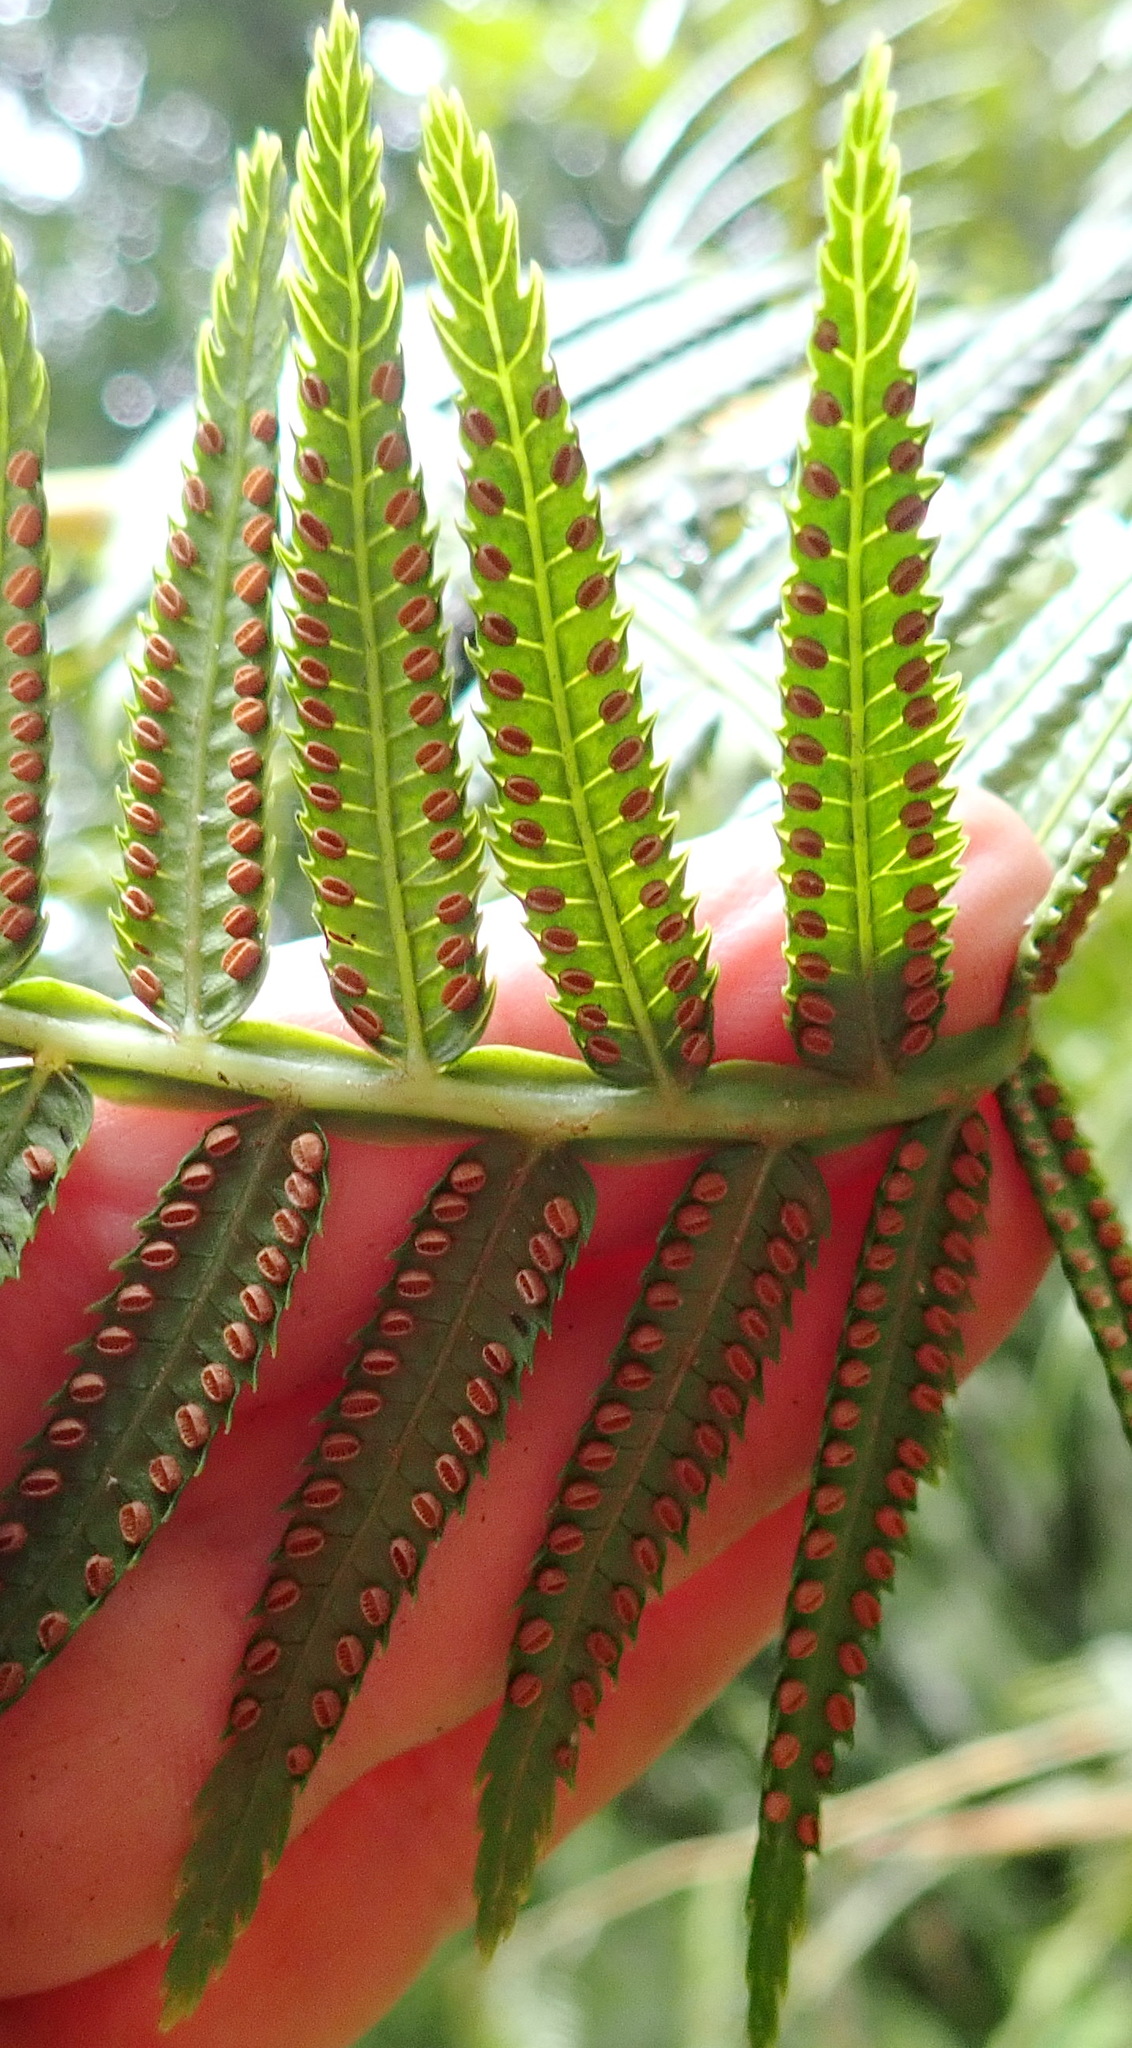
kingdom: Plantae
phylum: Tracheophyta
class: Polypodiopsida
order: Marattiales
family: Marattiaceae
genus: Ptisana
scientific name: Ptisana salicifolia
